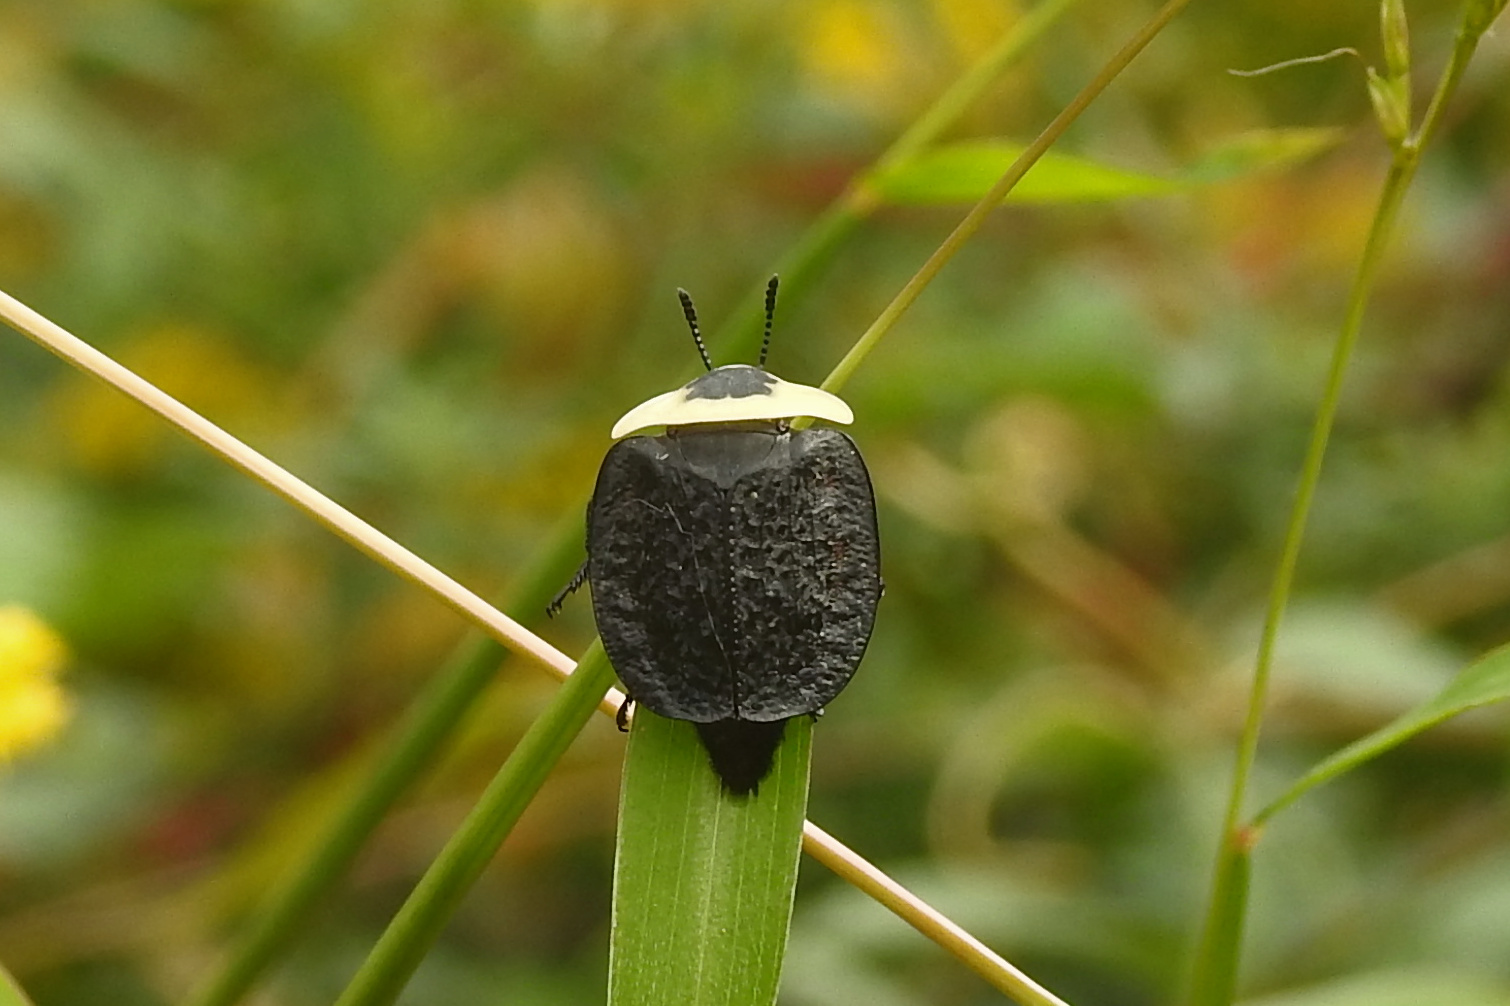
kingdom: Animalia
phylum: Arthropoda
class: Insecta
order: Coleoptera
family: Staphylinidae
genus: Necrophila
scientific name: Necrophila americana
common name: American carrion beetle
